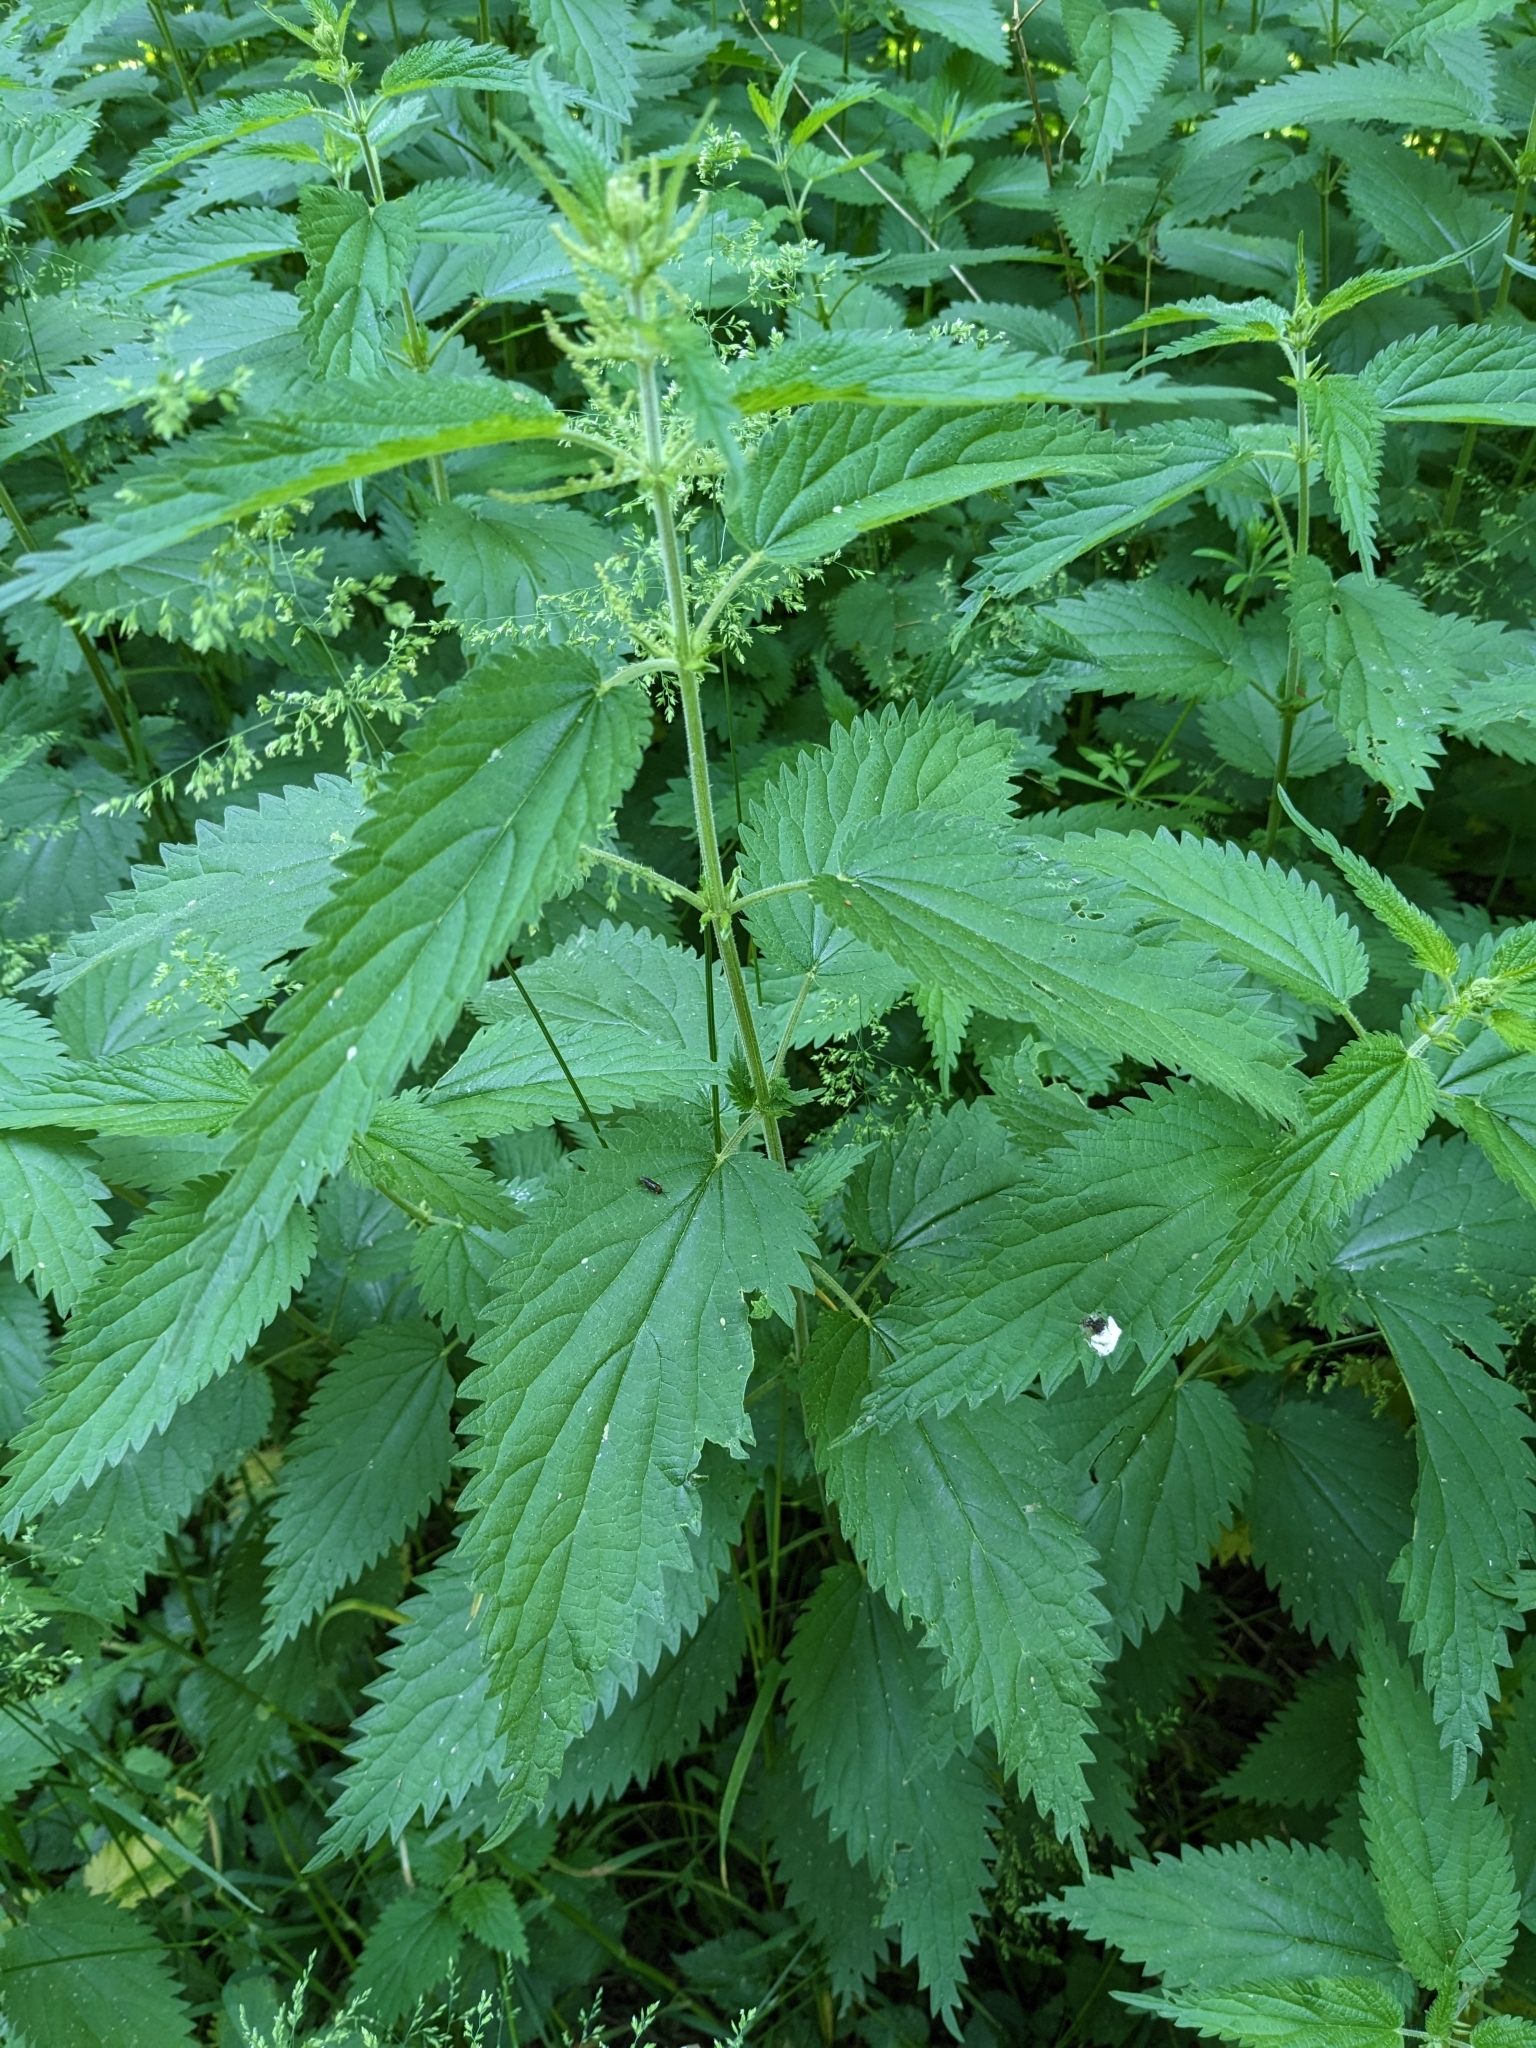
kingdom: Plantae
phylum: Tracheophyta
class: Magnoliopsida
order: Rosales
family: Urticaceae
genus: Urtica
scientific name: Urtica dioica
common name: Common nettle
